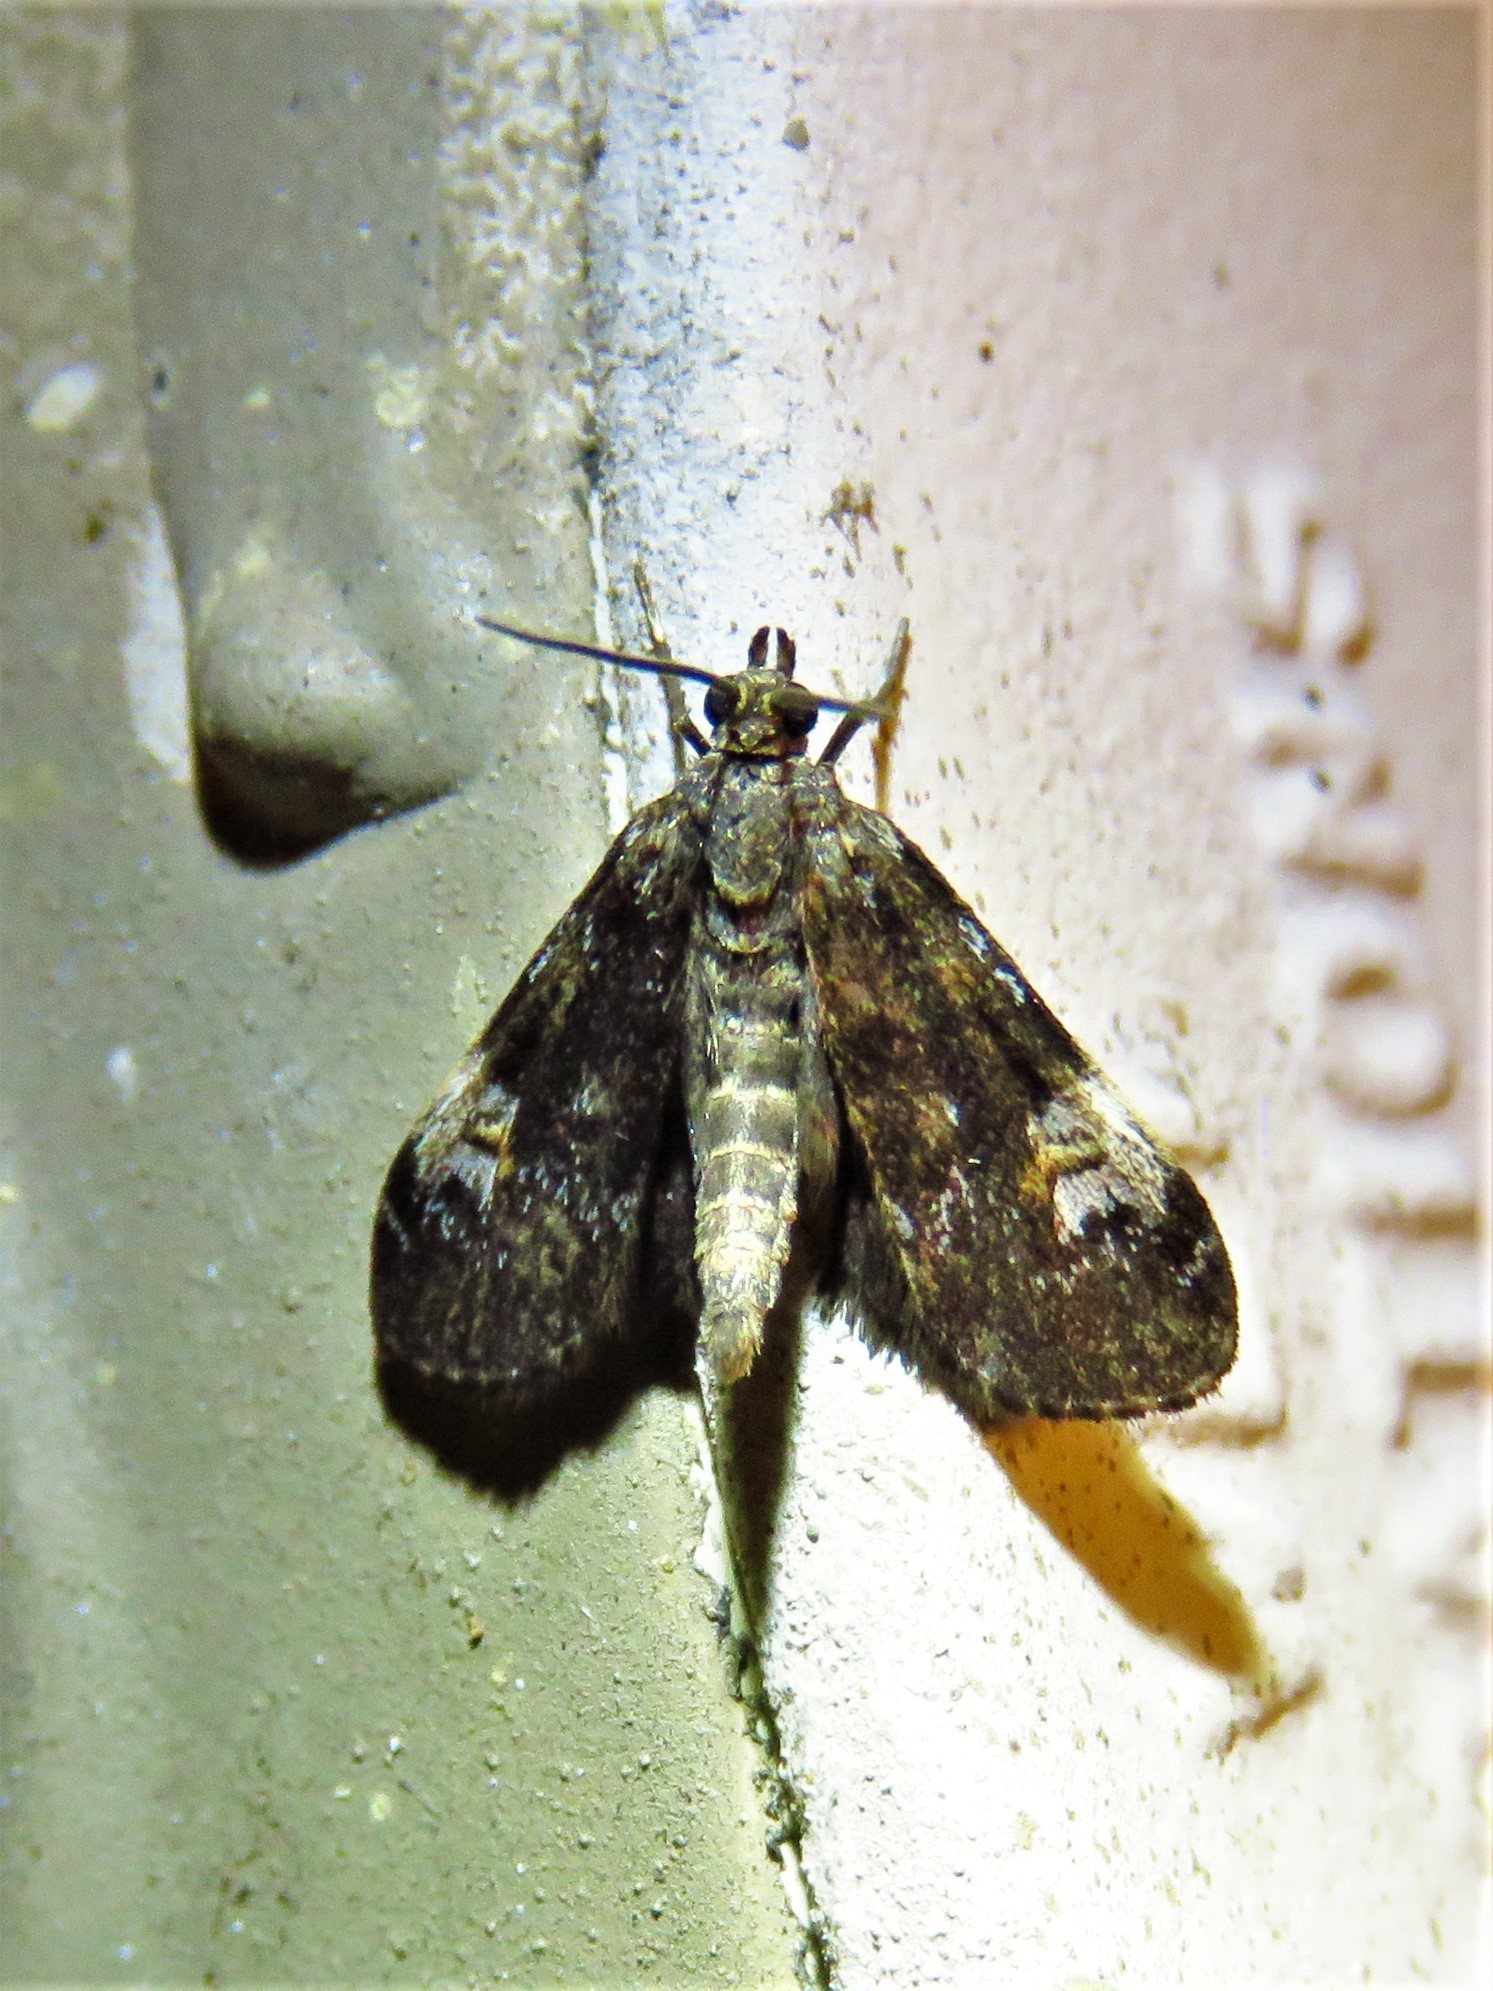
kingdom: Animalia
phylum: Arthropoda
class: Insecta
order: Lepidoptera
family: Crambidae
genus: Elophila
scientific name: Elophila obliteralis
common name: Waterlily leafcutter moth
